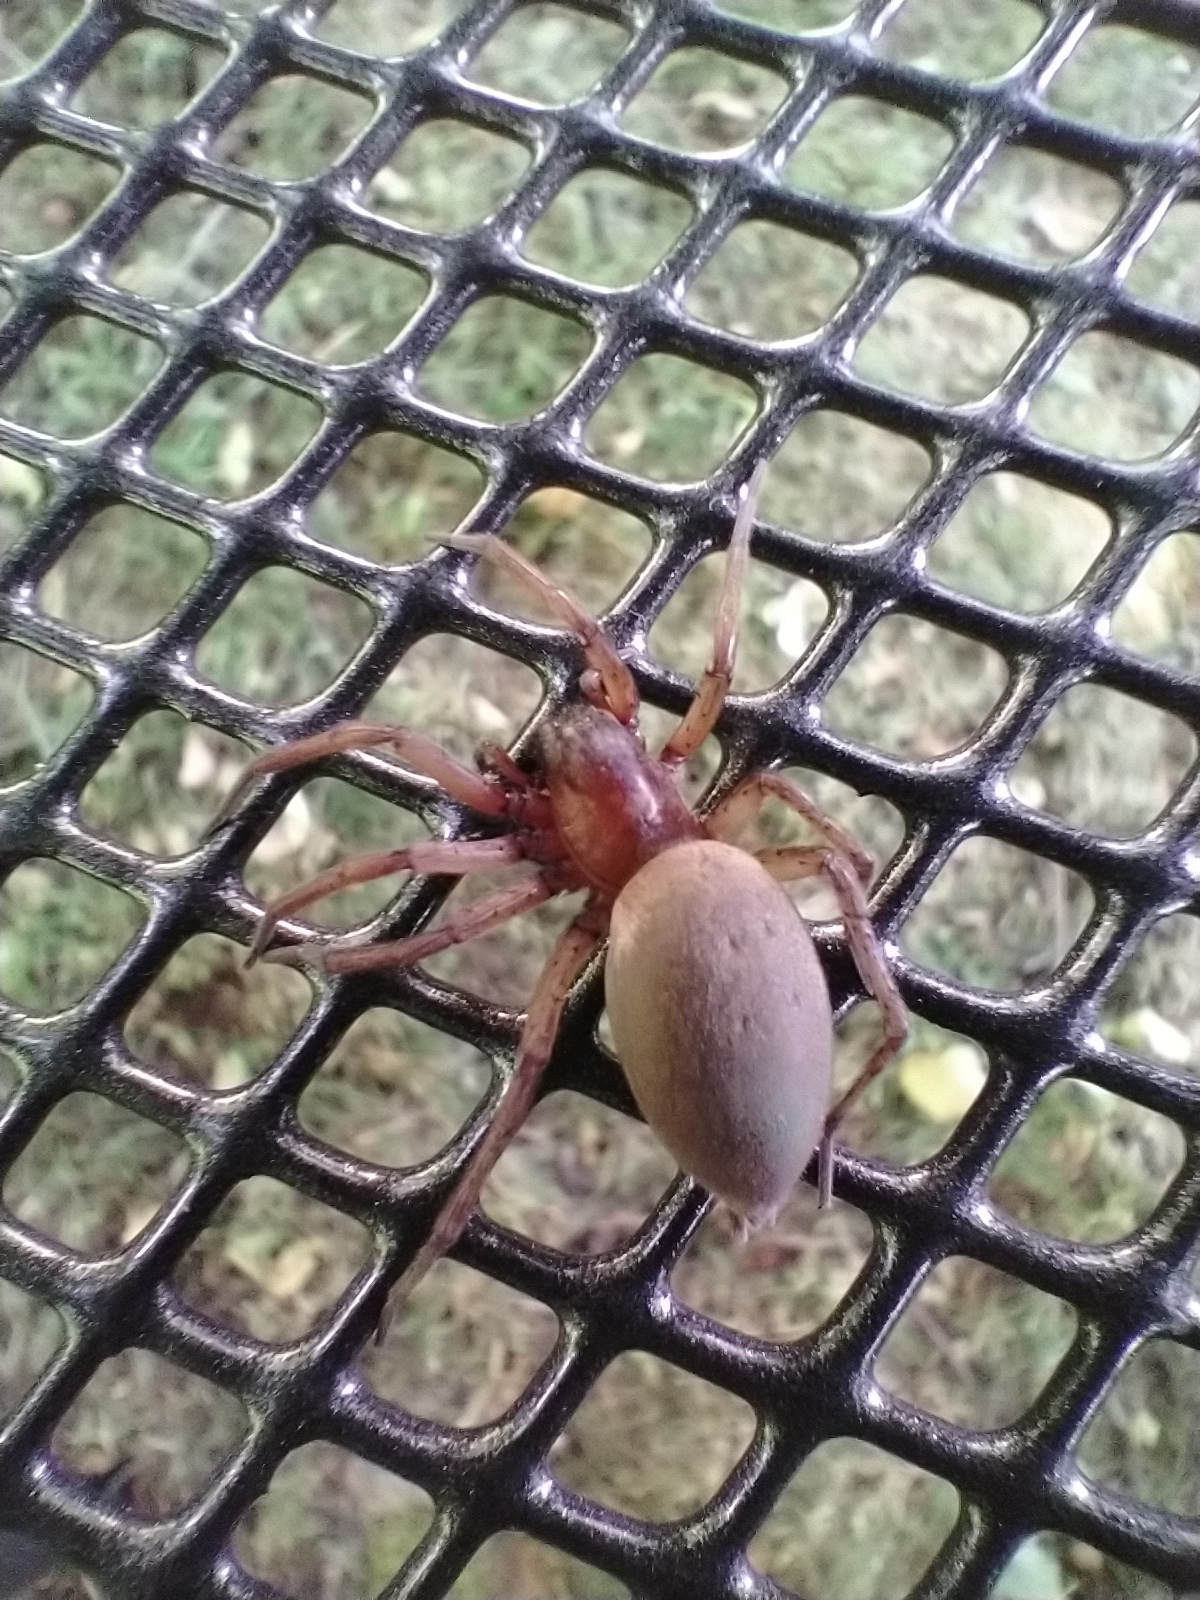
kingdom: Animalia
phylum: Arthropoda
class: Arachnida
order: Araneae
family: Dysderidae
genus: Dysdera
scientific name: Dysdera crocata
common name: Woodlouse spider
